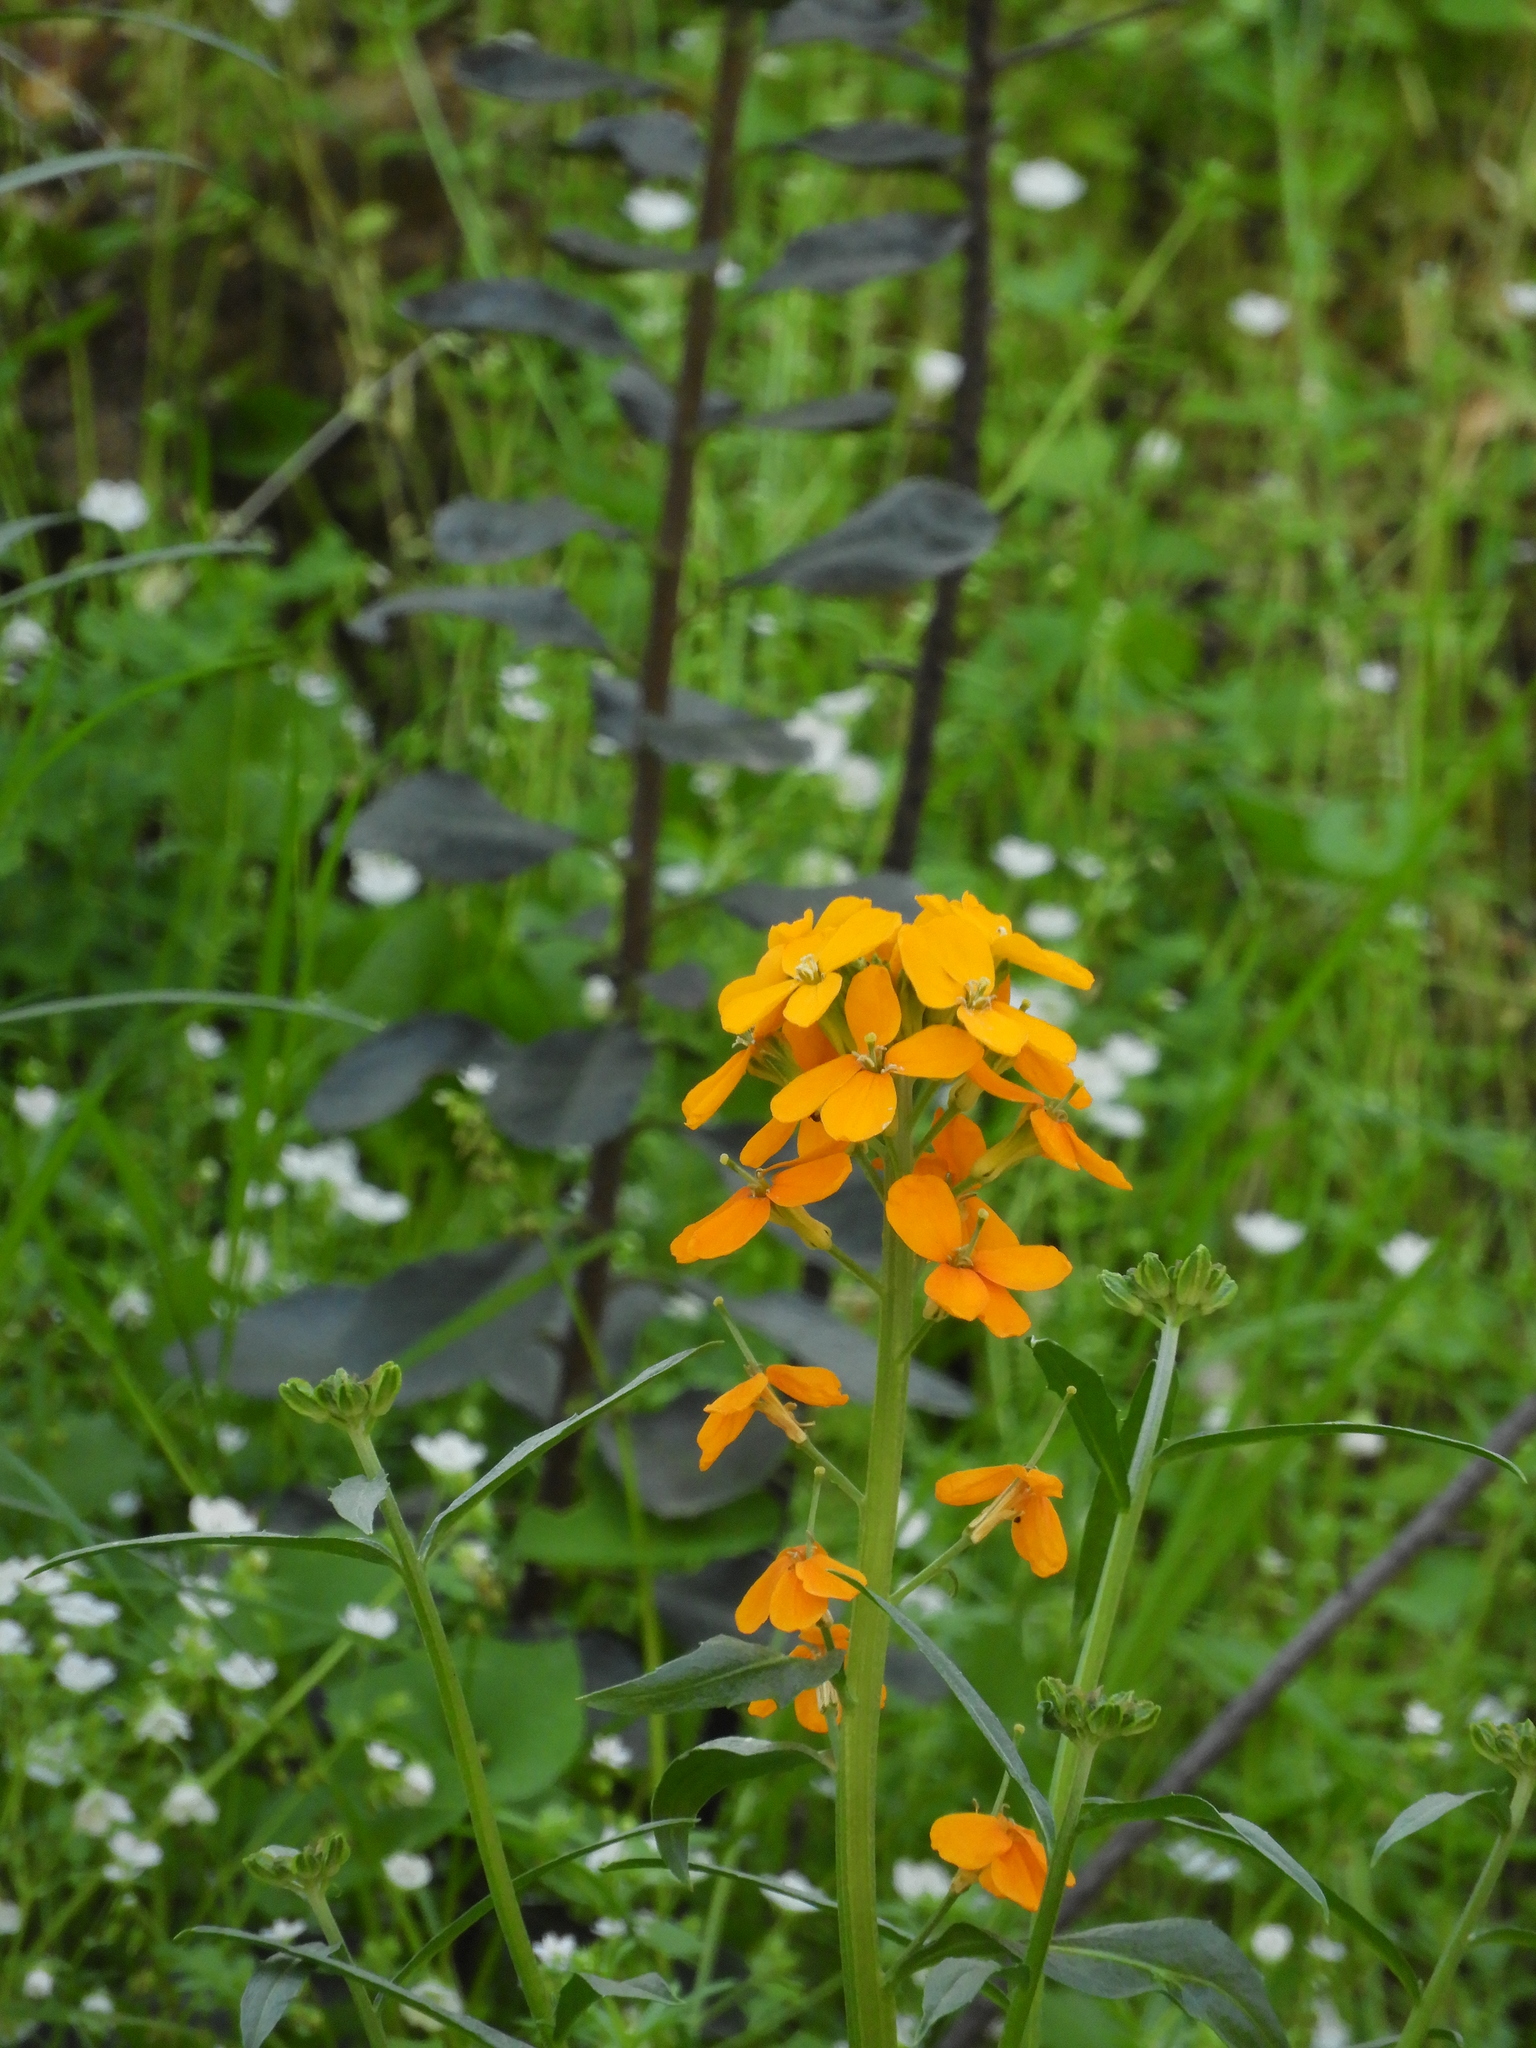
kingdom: Plantae
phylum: Tracheophyta
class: Magnoliopsida
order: Brassicales
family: Brassicaceae
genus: Erysimum
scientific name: Erysimum capitatum
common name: Western wallflower
